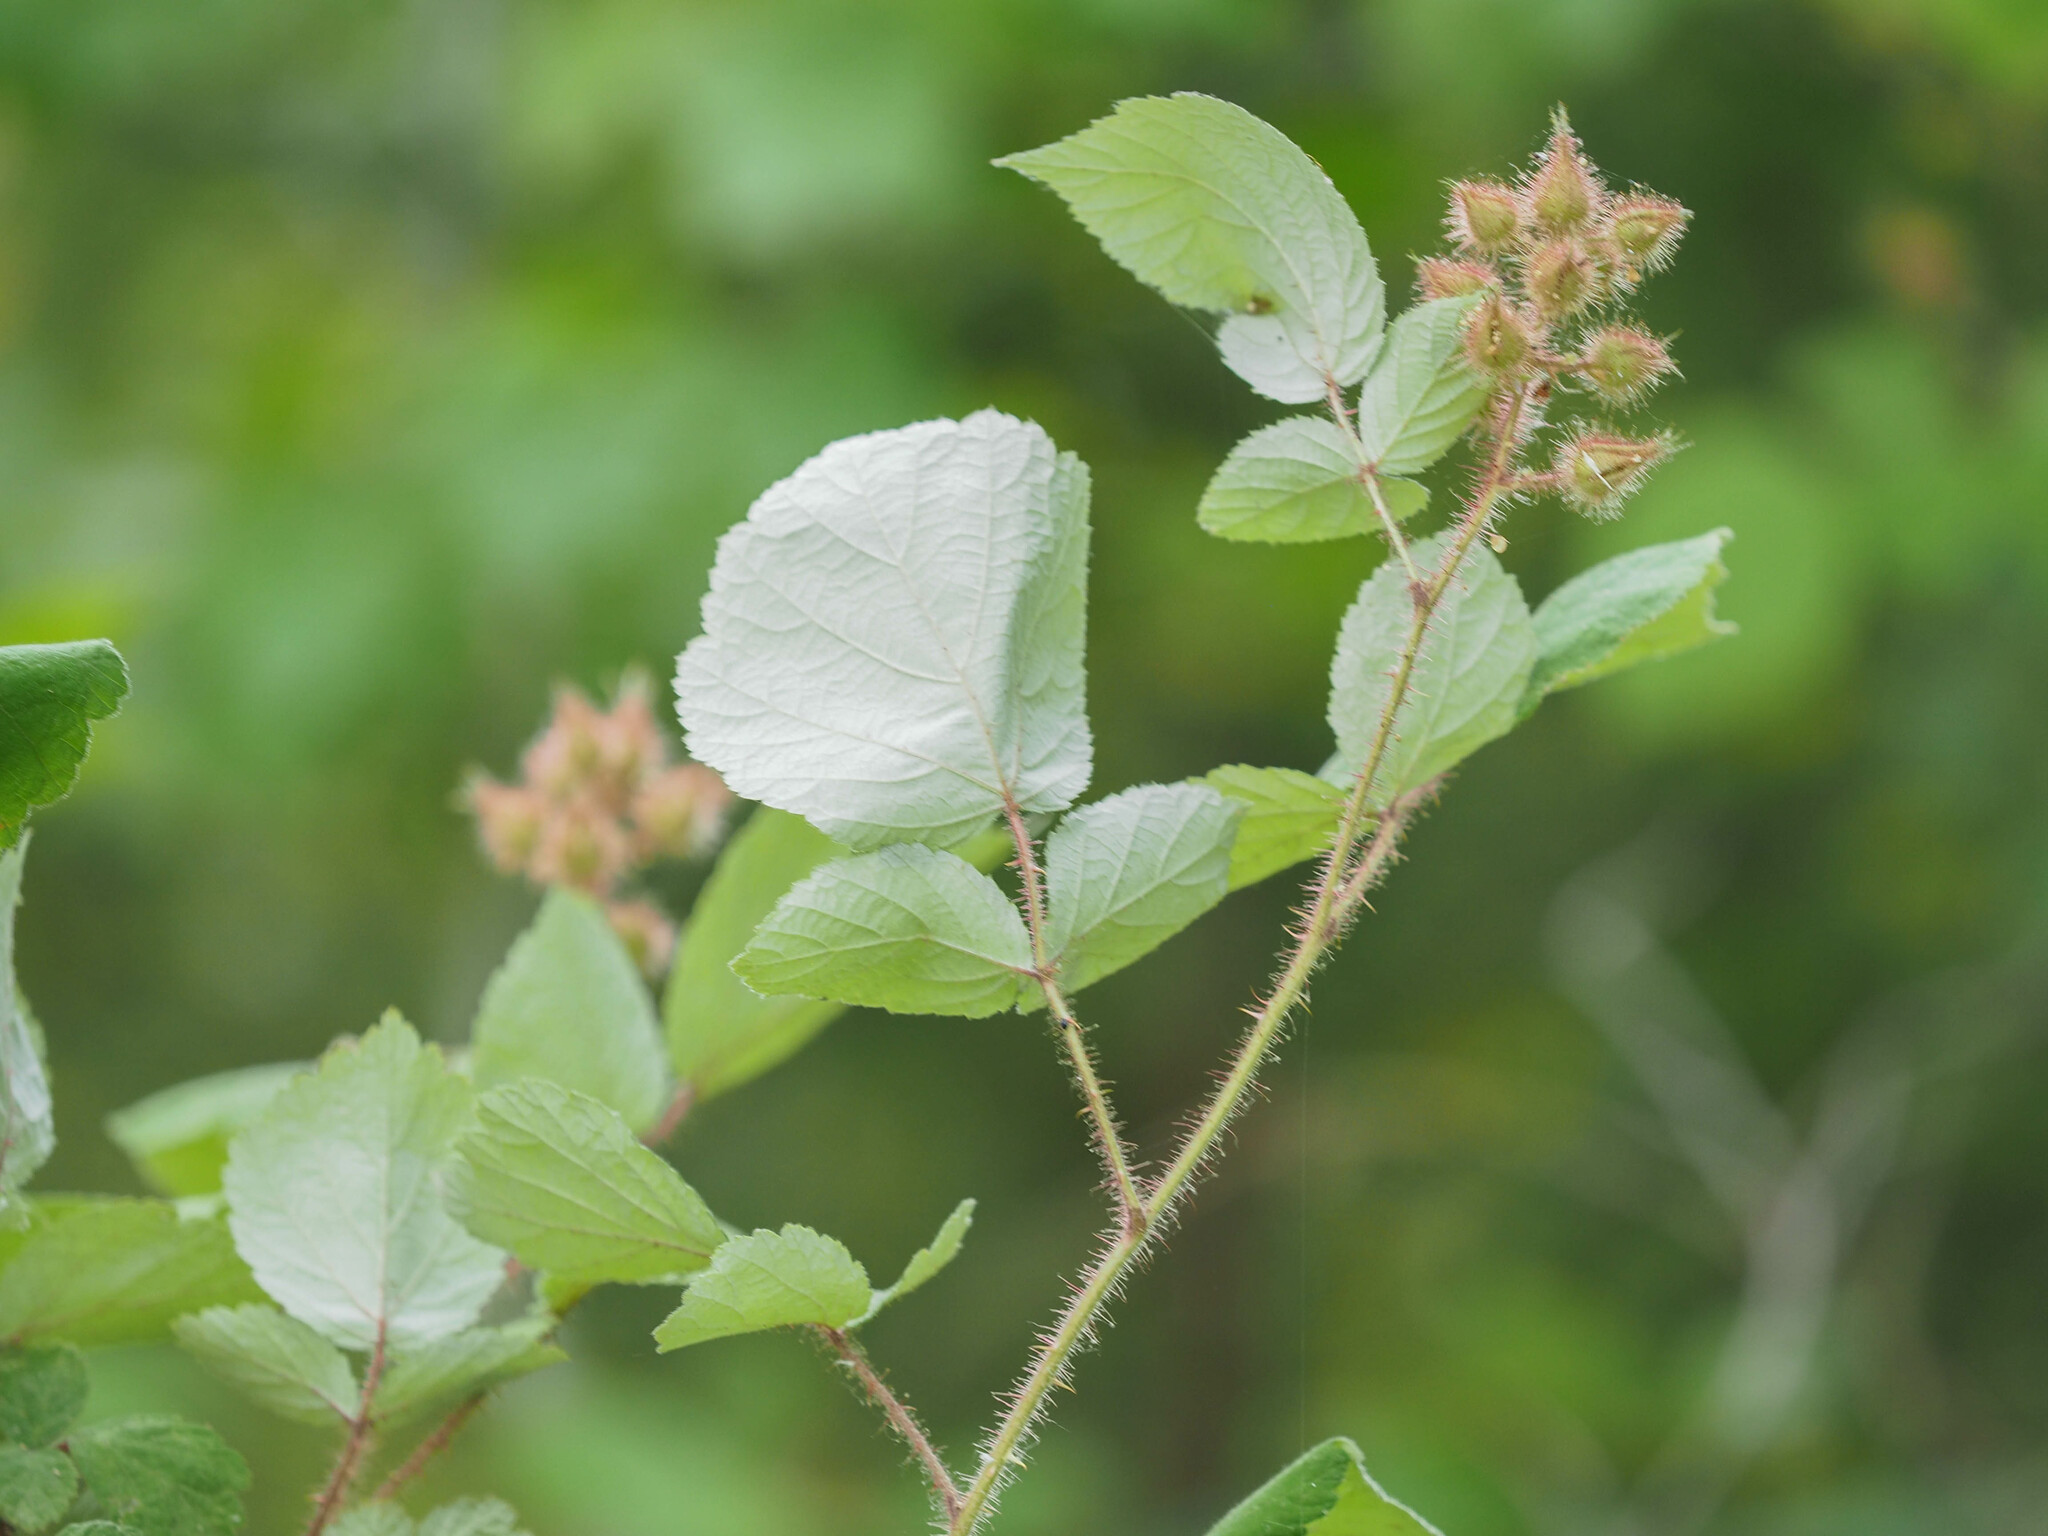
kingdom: Plantae
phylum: Tracheophyta
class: Magnoliopsida
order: Rosales
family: Rosaceae
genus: Rubus
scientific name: Rubus phoenicolasius
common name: Japanese wineberry
